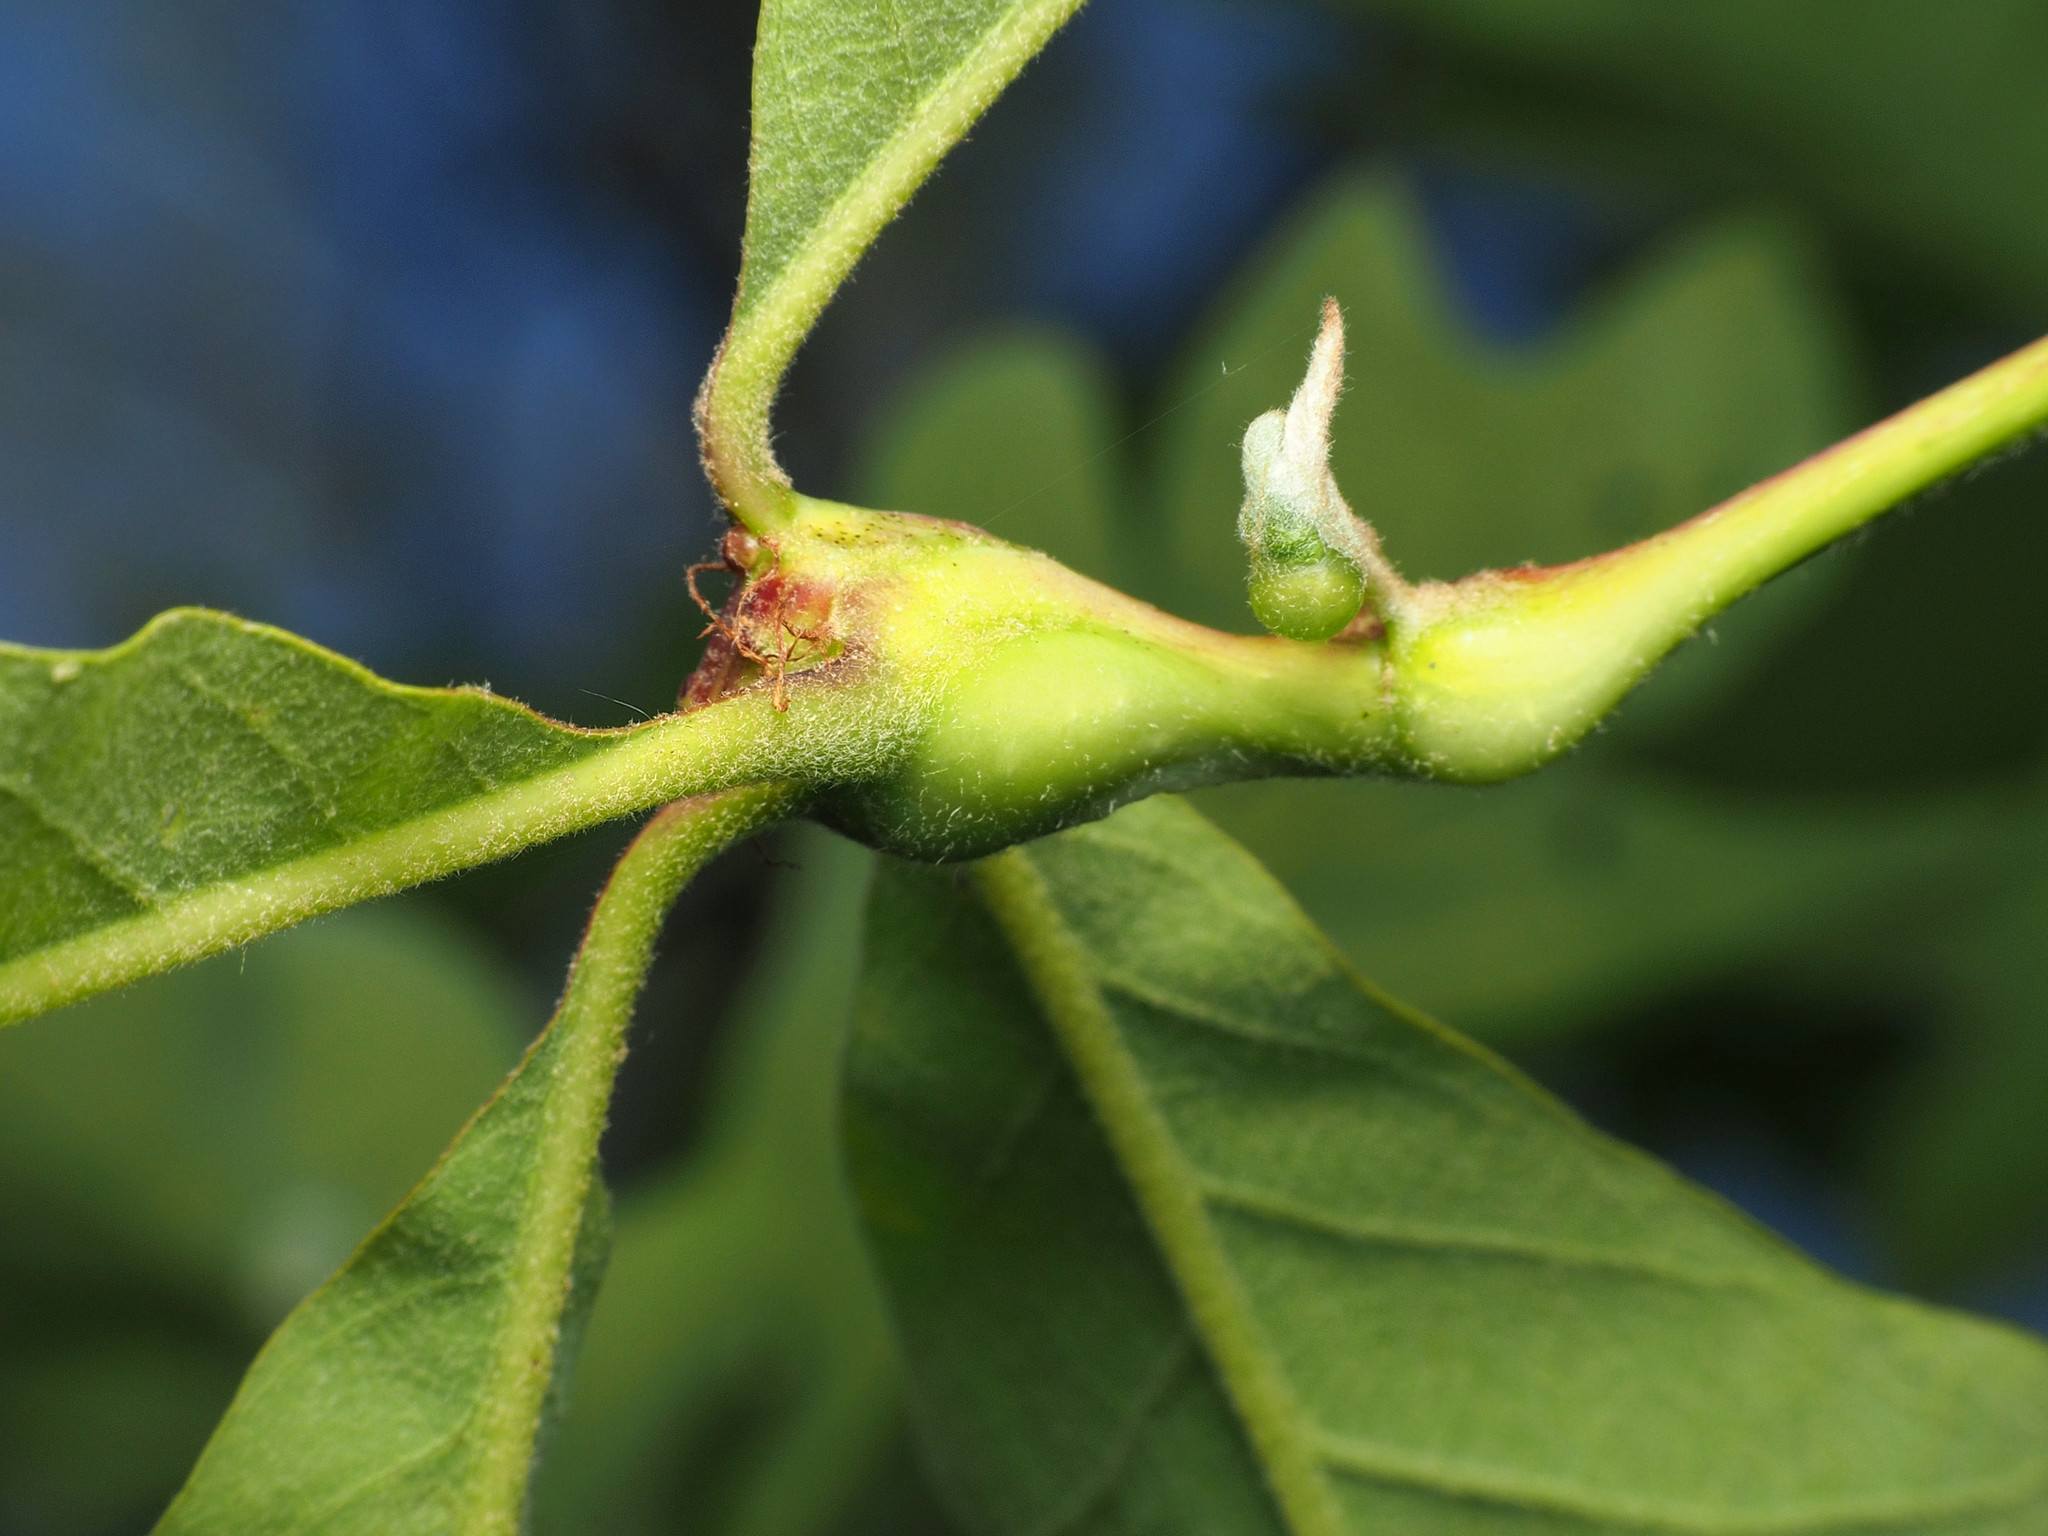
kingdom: Animalia
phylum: Arthropoda
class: Insecta
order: Hymenoptera
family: Cynipidae
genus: Callirhytis
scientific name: Callirhytis clavula
